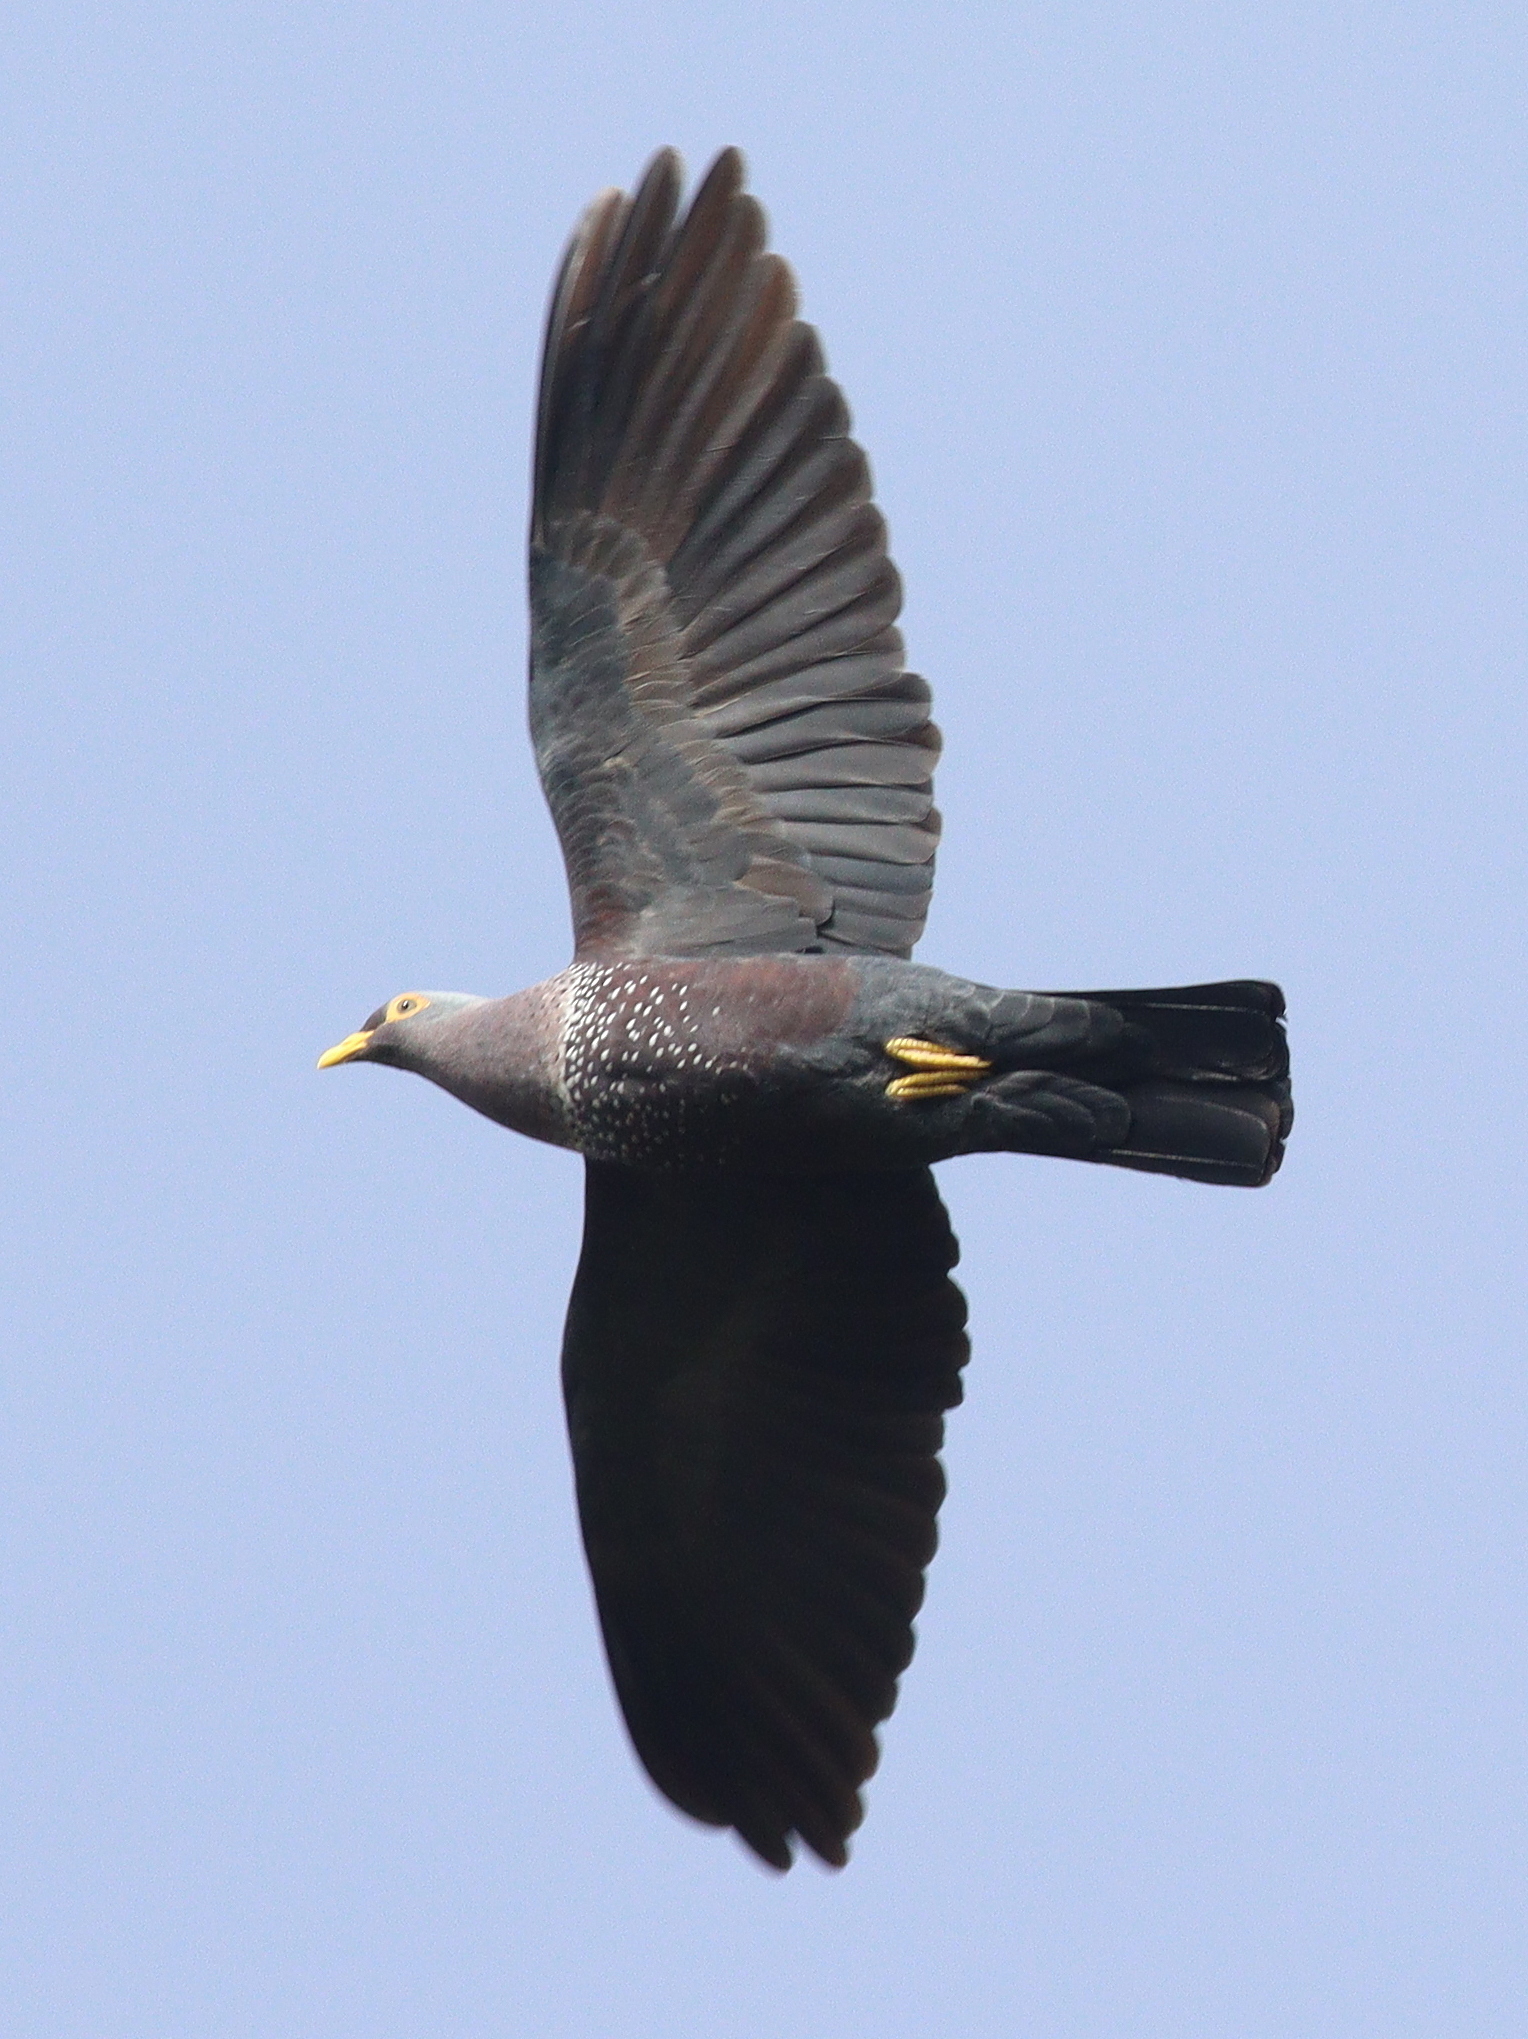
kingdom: Animalia
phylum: Chordata
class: Aves
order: Columbiformes
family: Columbidae
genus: Columba
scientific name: Columba arquatrix
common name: African olive pigeon
